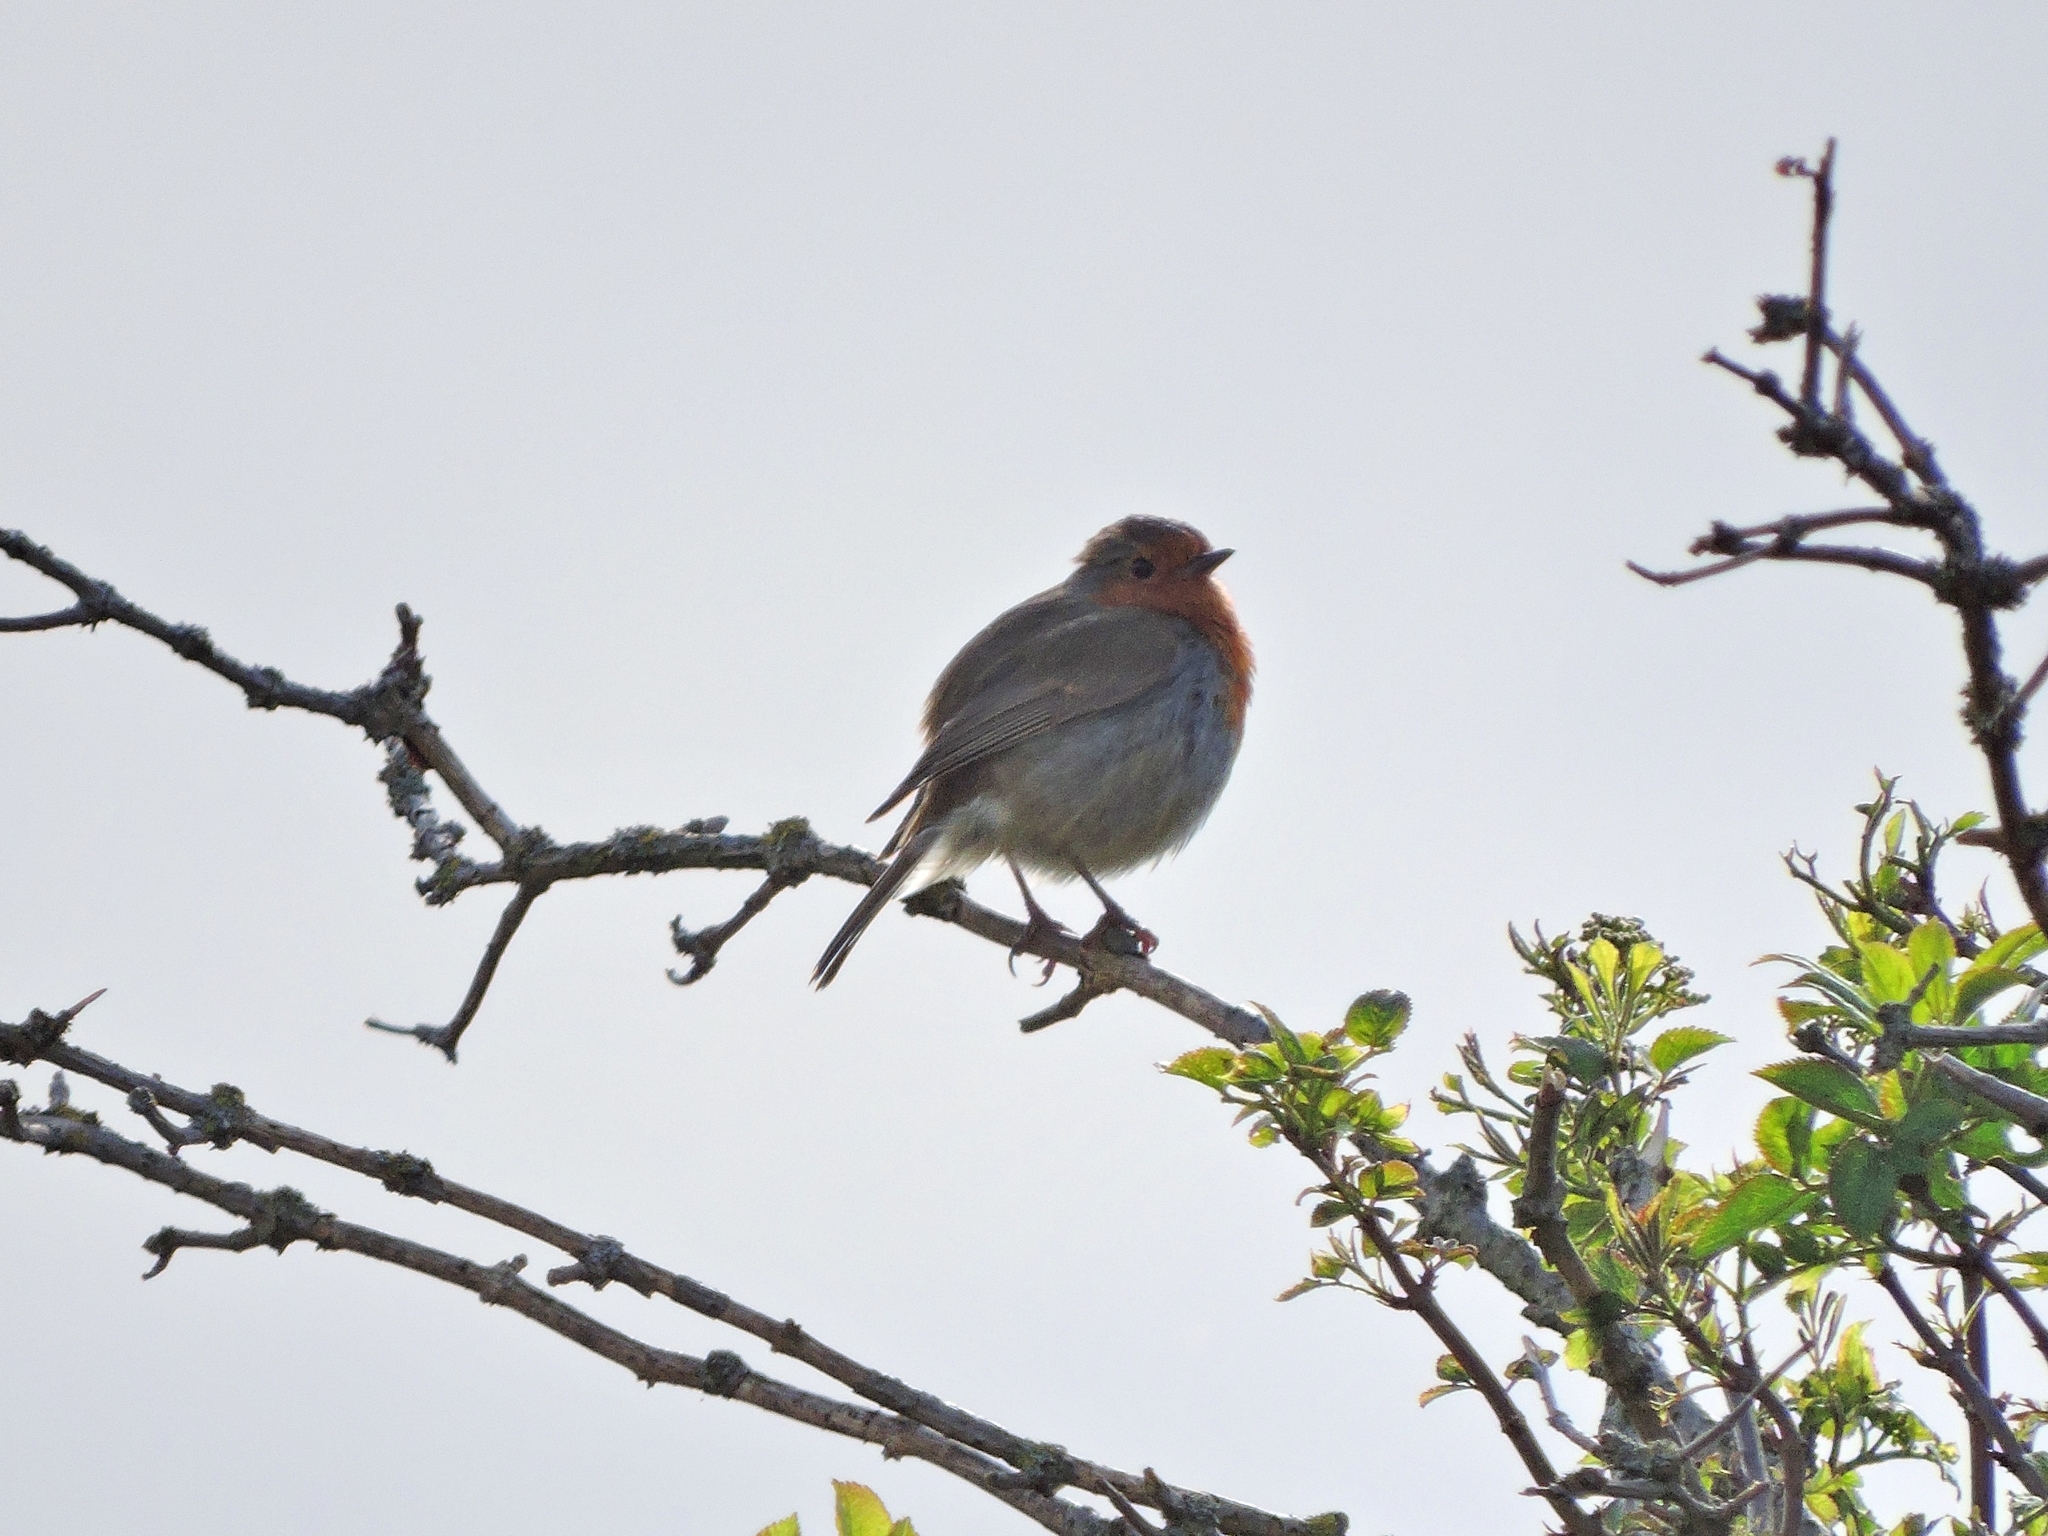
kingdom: Animalia
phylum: Chordata
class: Aves
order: Passeriformes
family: Muscicapidae
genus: Erithacus
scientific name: Erithacus rubecula
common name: European robin
